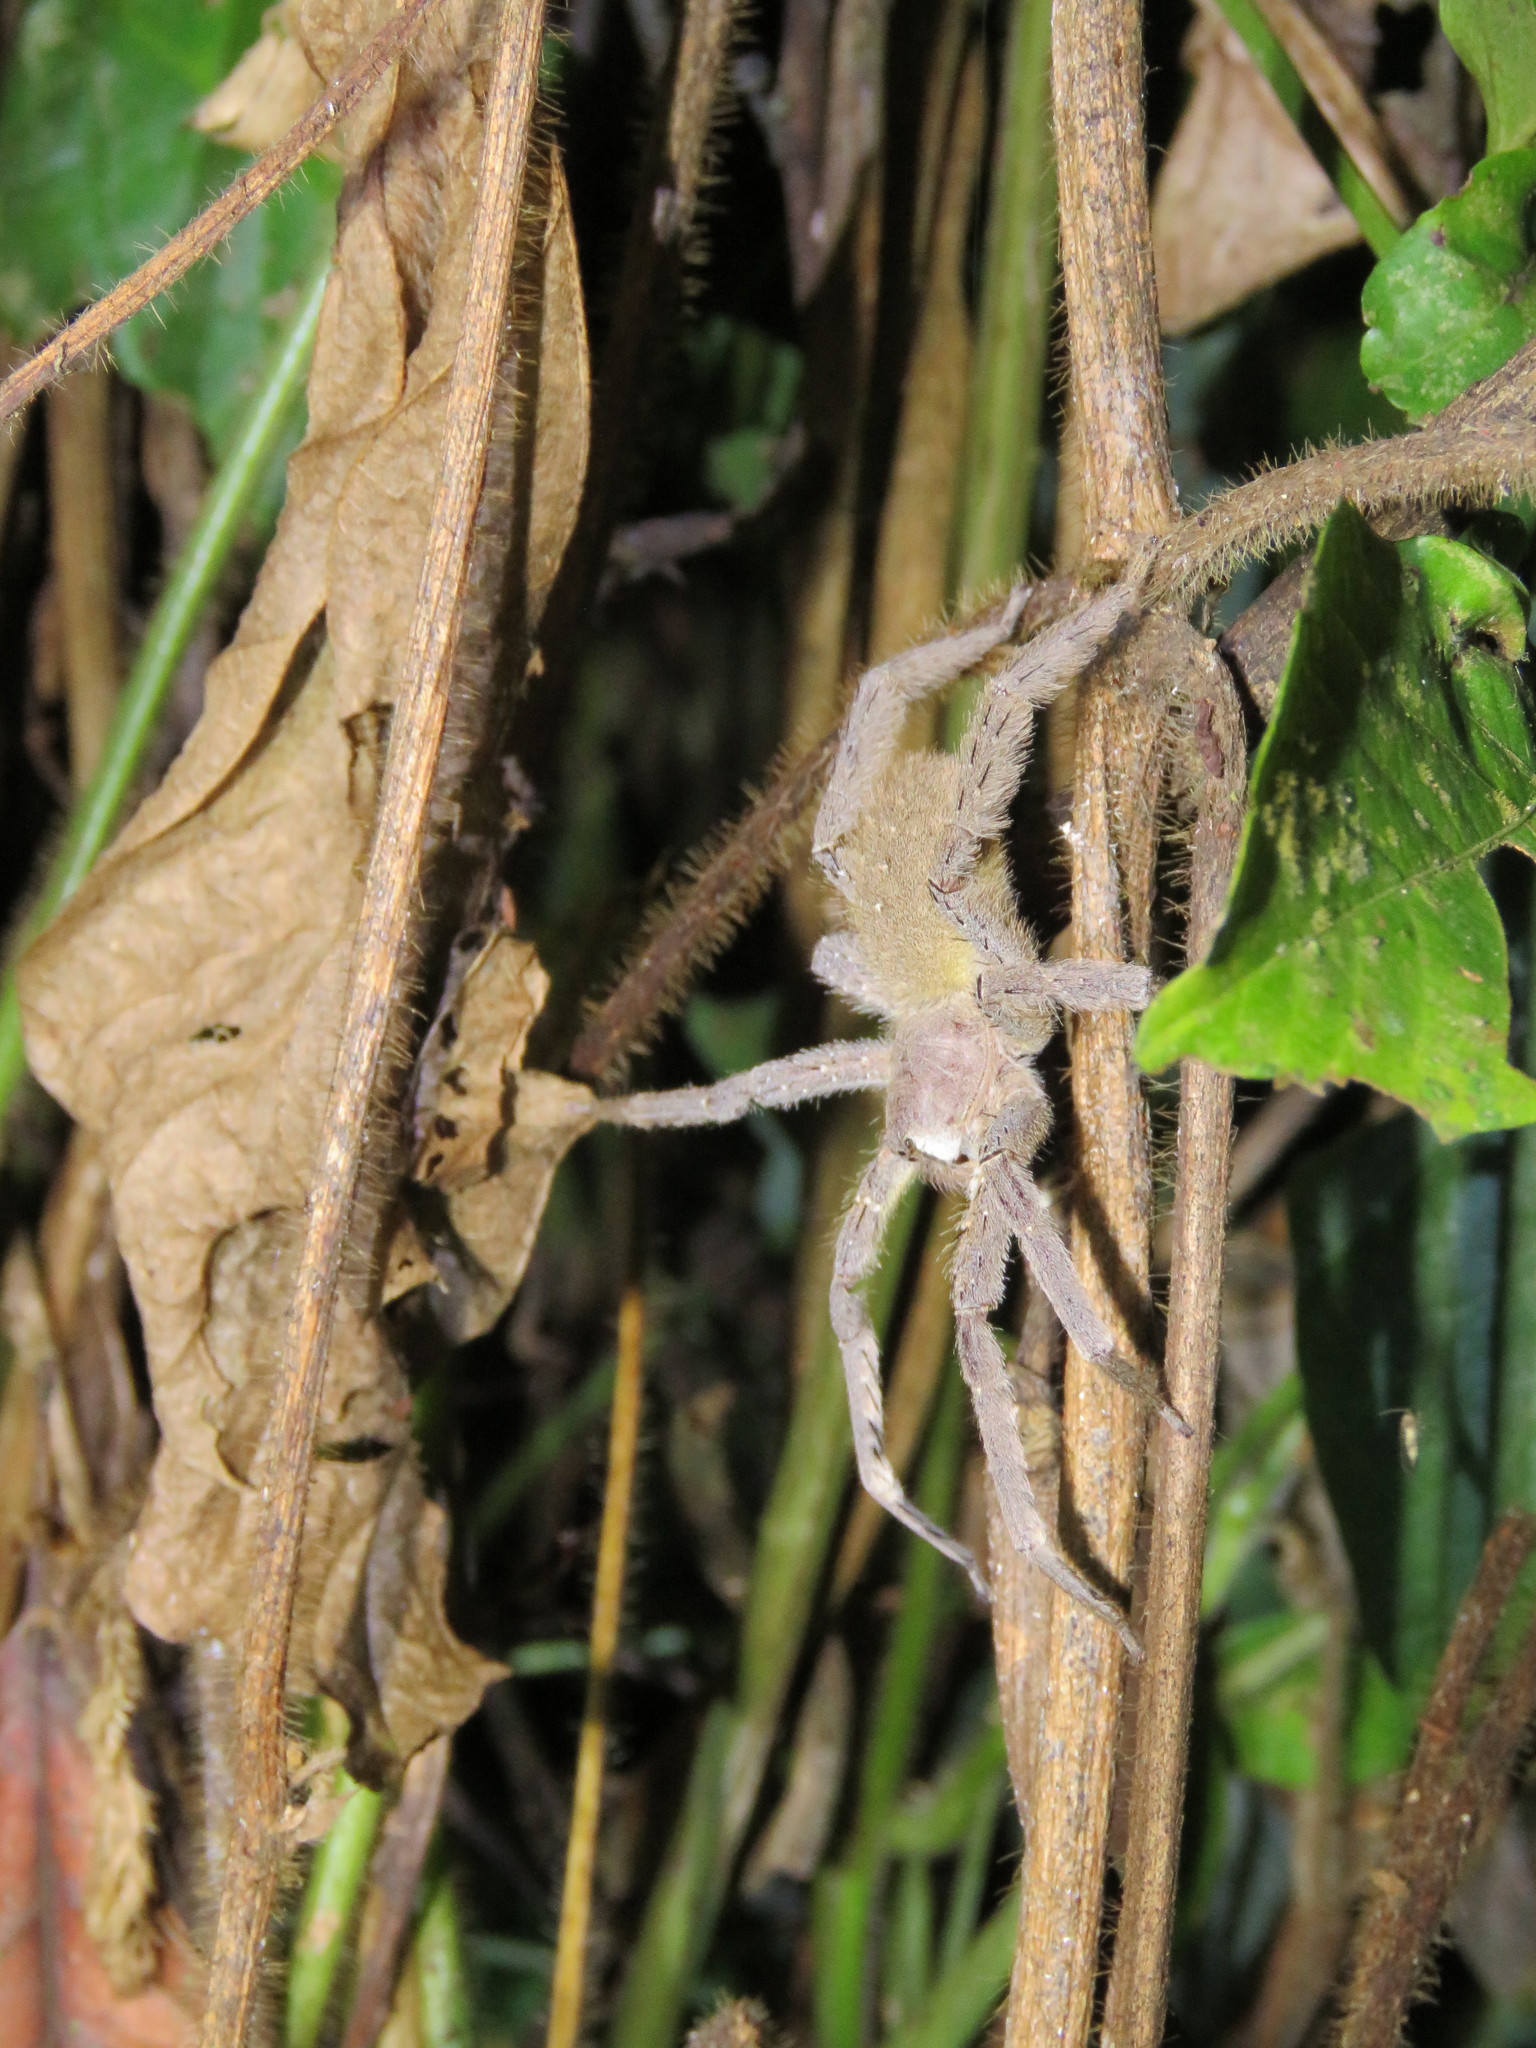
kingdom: Animalia
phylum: Arthropoda
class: Arachnida
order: Araneae
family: Ctenidae
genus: Phoneutria
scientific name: Phoneutria boliviensis
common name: Wandering spiders
